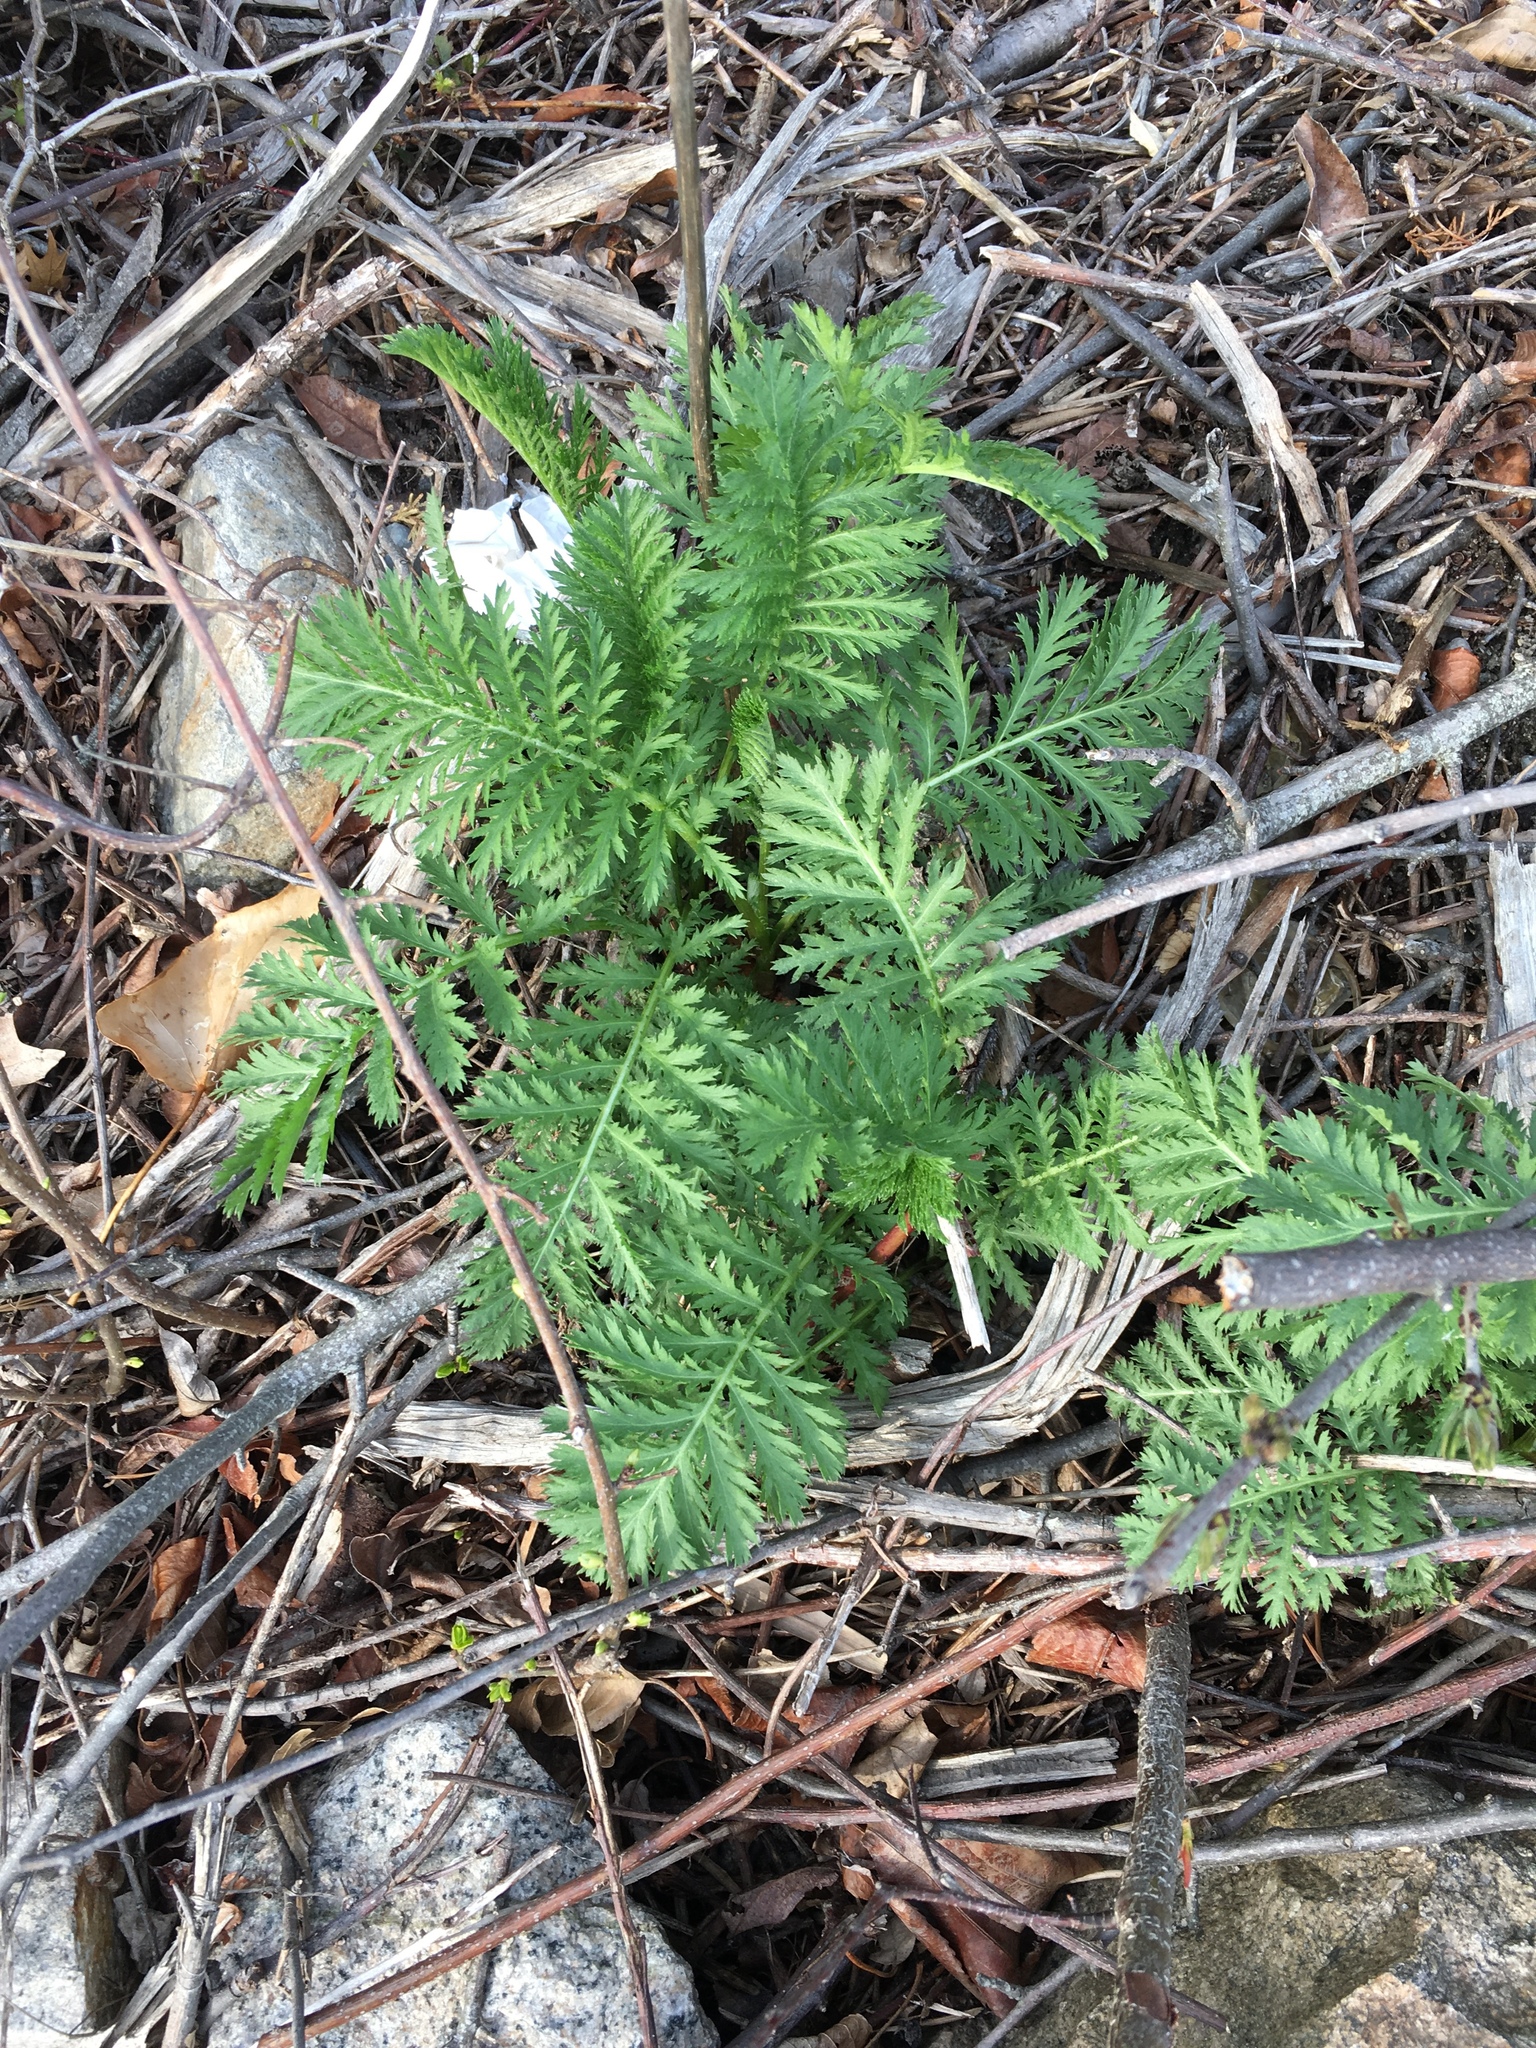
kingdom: Plantae
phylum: Tracheophyta
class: Magnoliopsida
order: Asterales
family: Asteraceae
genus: Tanacetum
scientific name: Tanacetum vulgare
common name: Common tansy
